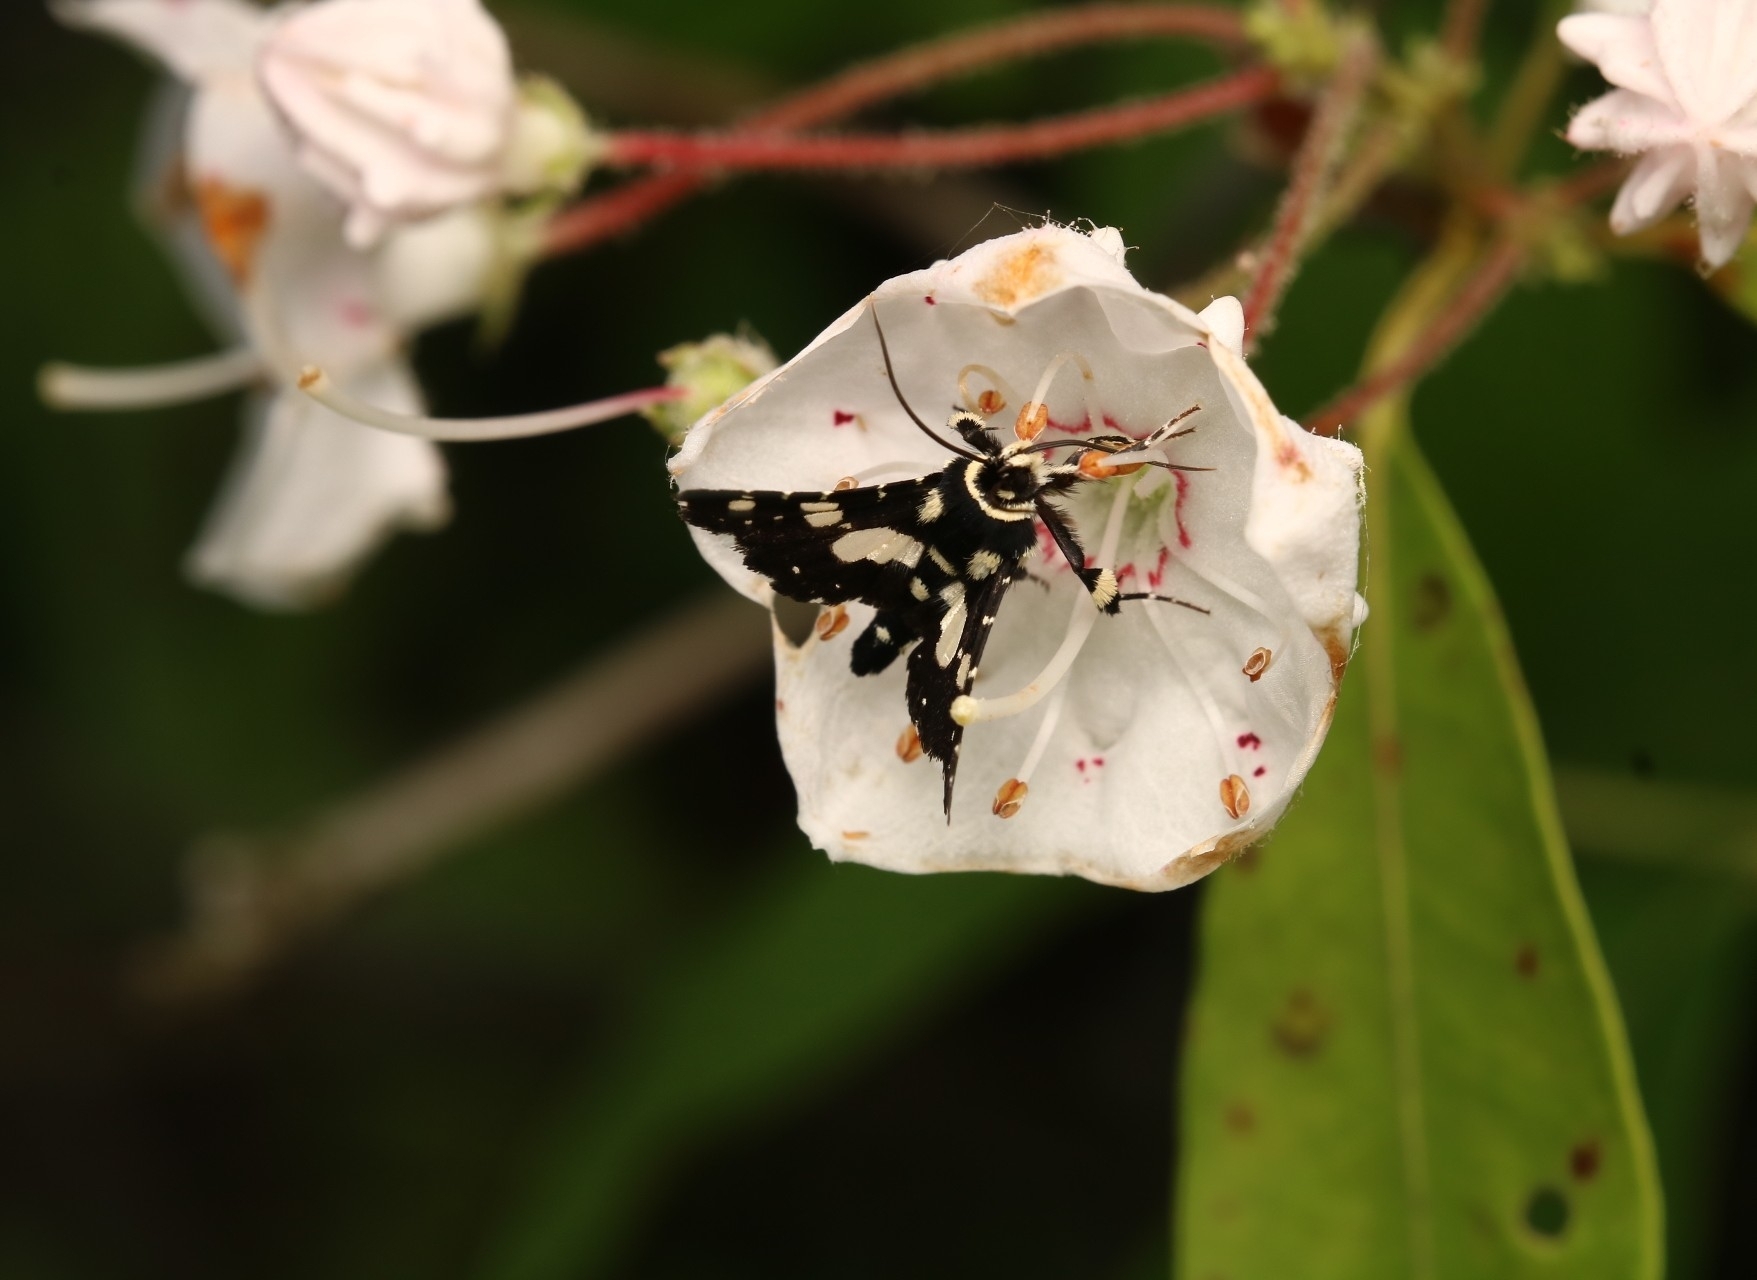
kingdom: Animalia
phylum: Arthropoda
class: Insecta
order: Lepidoptera
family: Thyrididae
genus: Pseudothyris
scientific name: Pseudothyris sepulchralis
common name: Mournful thyris moth
